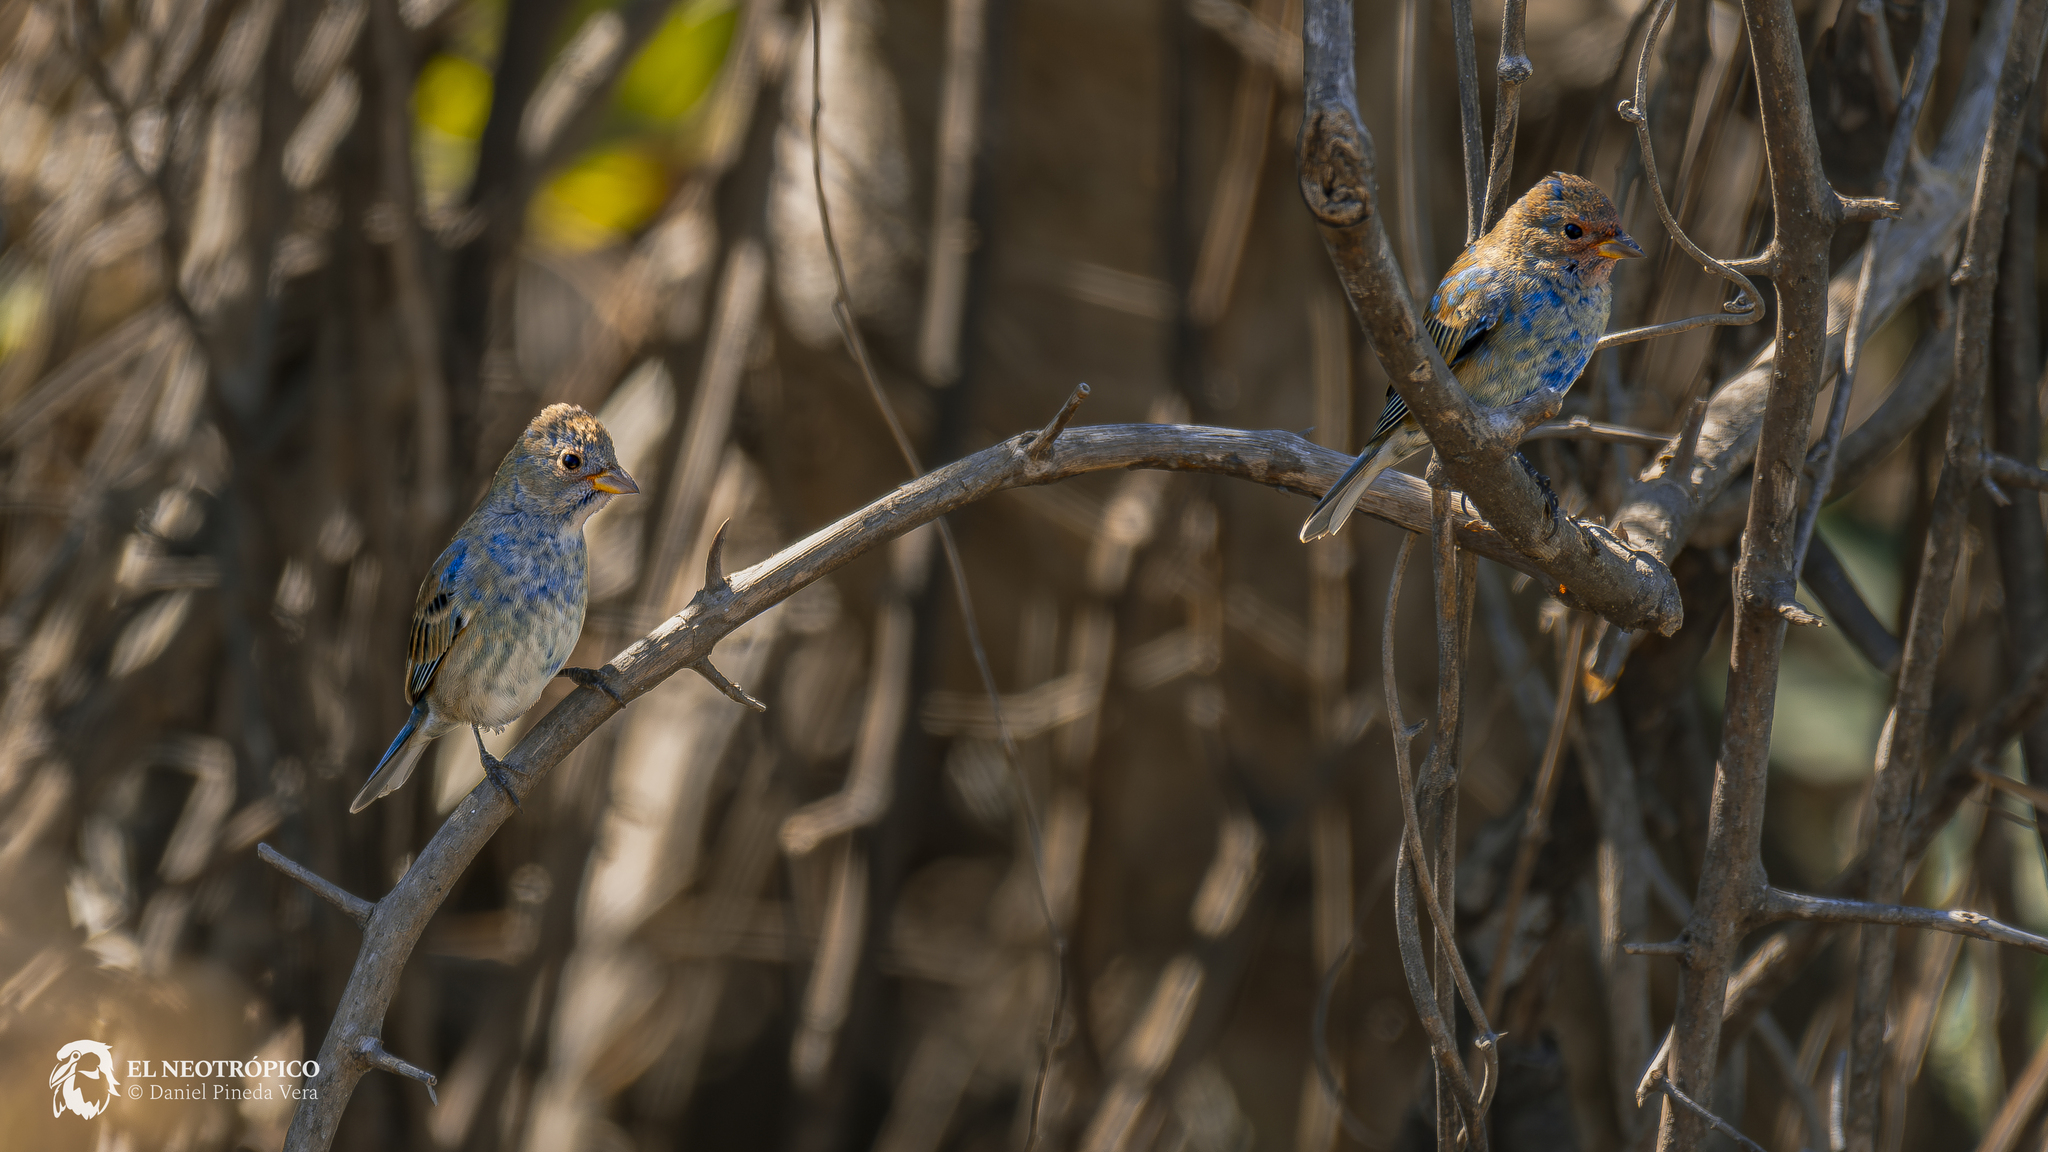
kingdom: Animalia
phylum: Chordata
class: Aves
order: Passeriformes
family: Cardinalidae
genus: Passerina
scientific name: Passerina cyanea
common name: Indigo bunting
